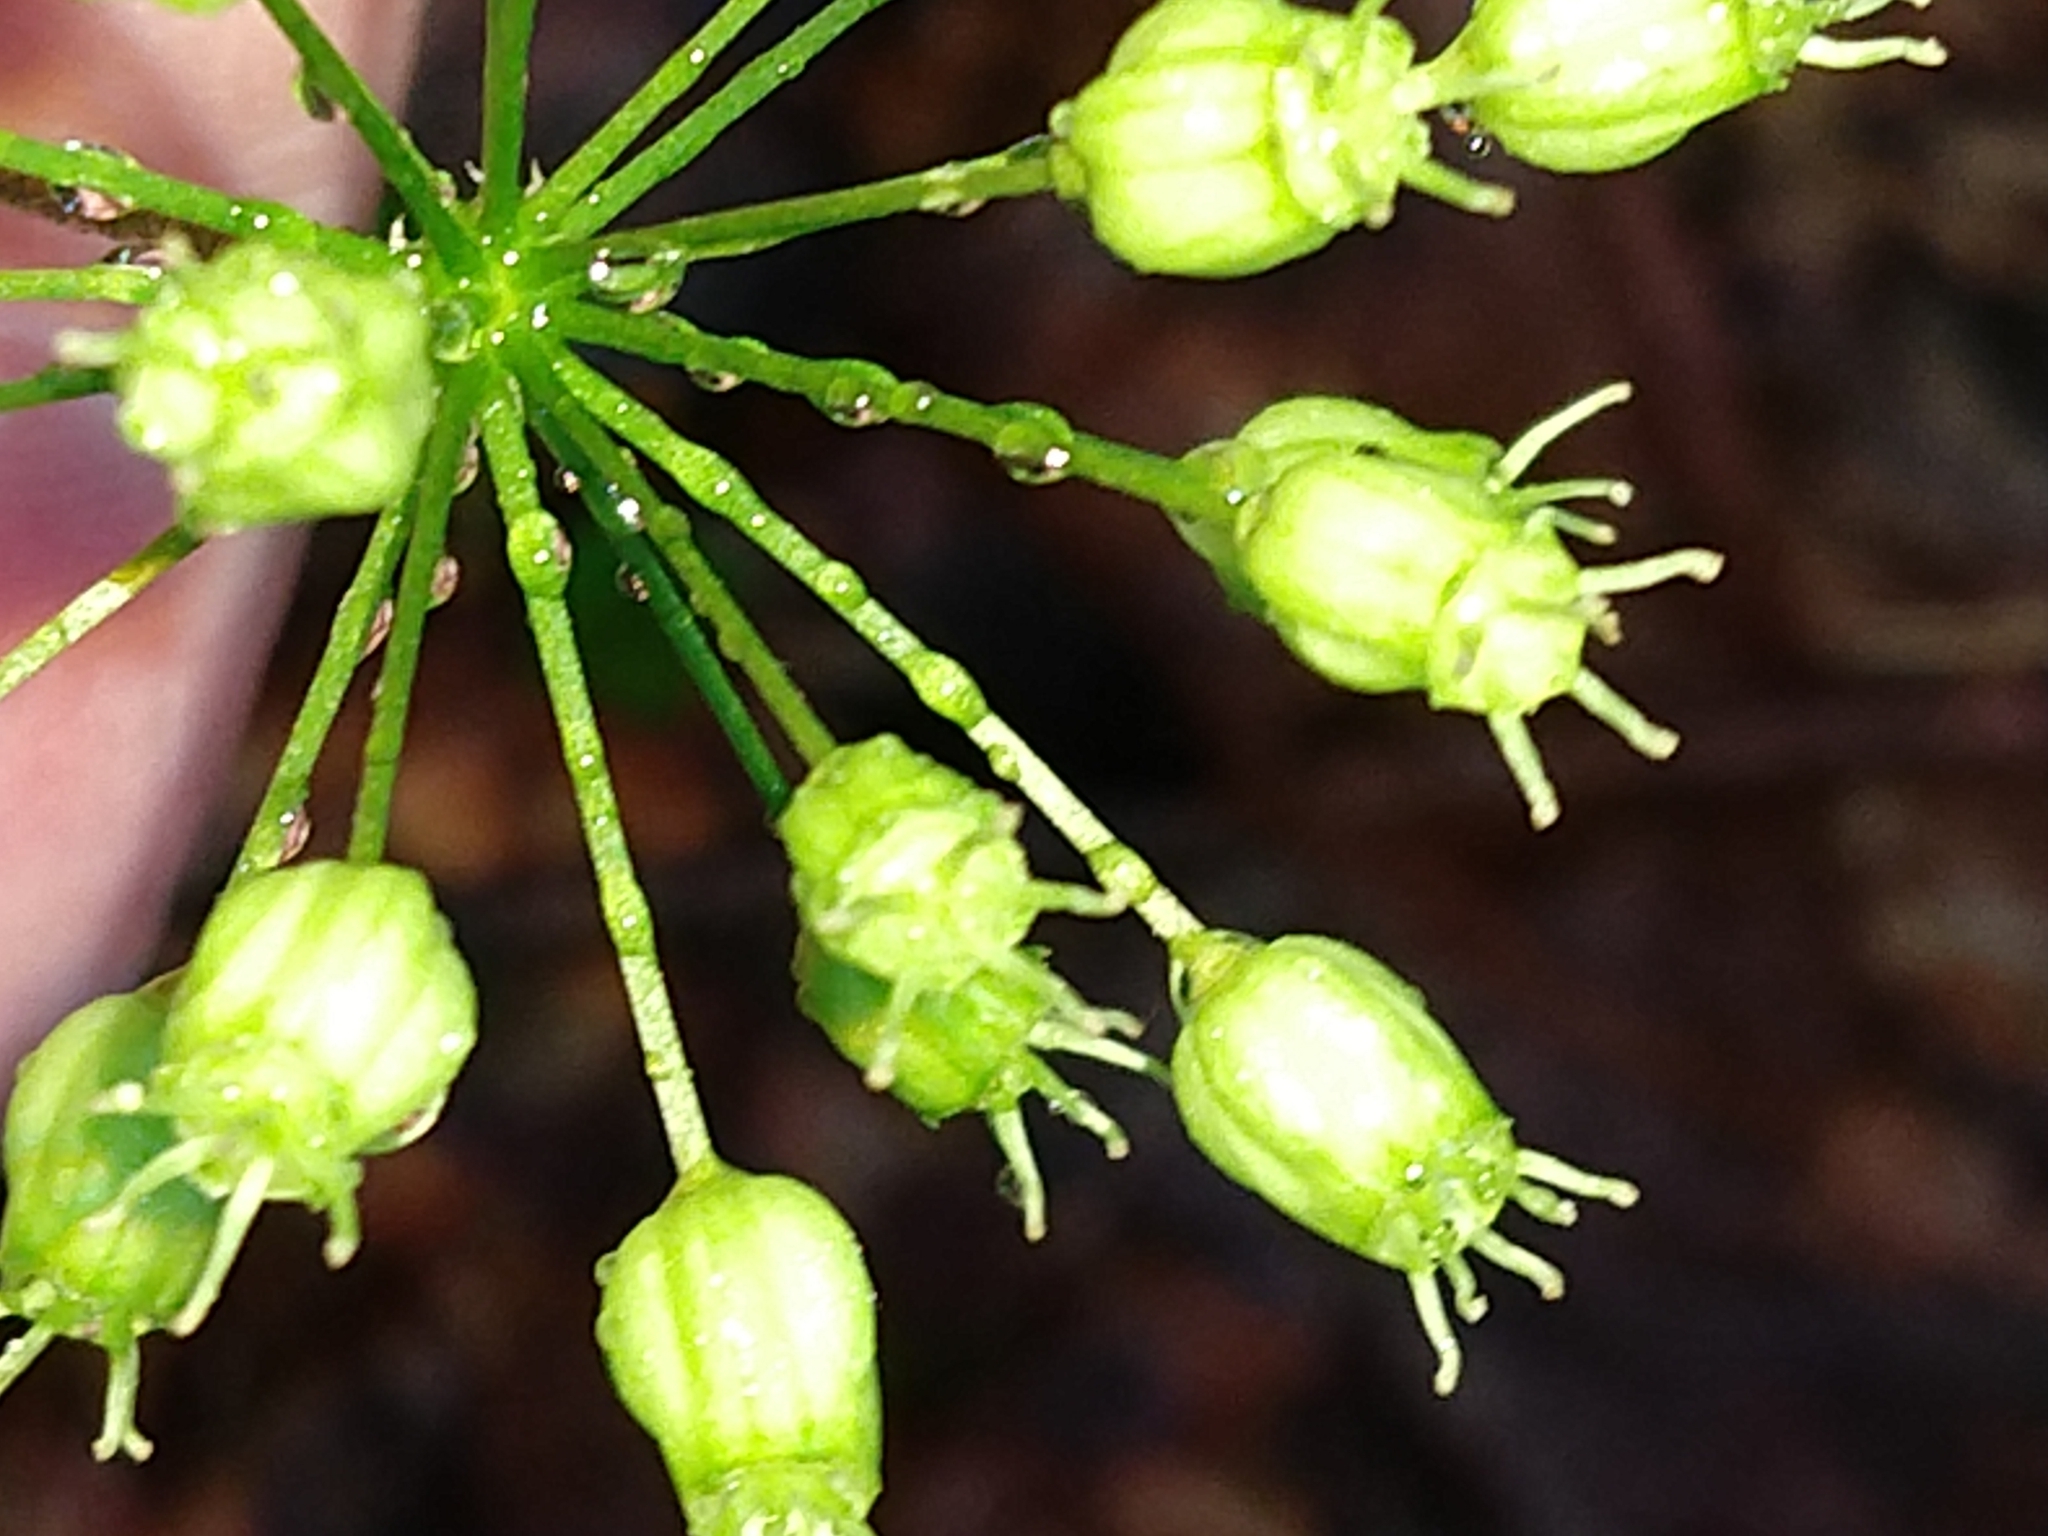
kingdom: Plantae
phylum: Tracheophyta
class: Magnoliopsida
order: Apiales
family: Araliaceae
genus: Aralia
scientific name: Aralia nudicaulis
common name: Wild sarsaparilla
